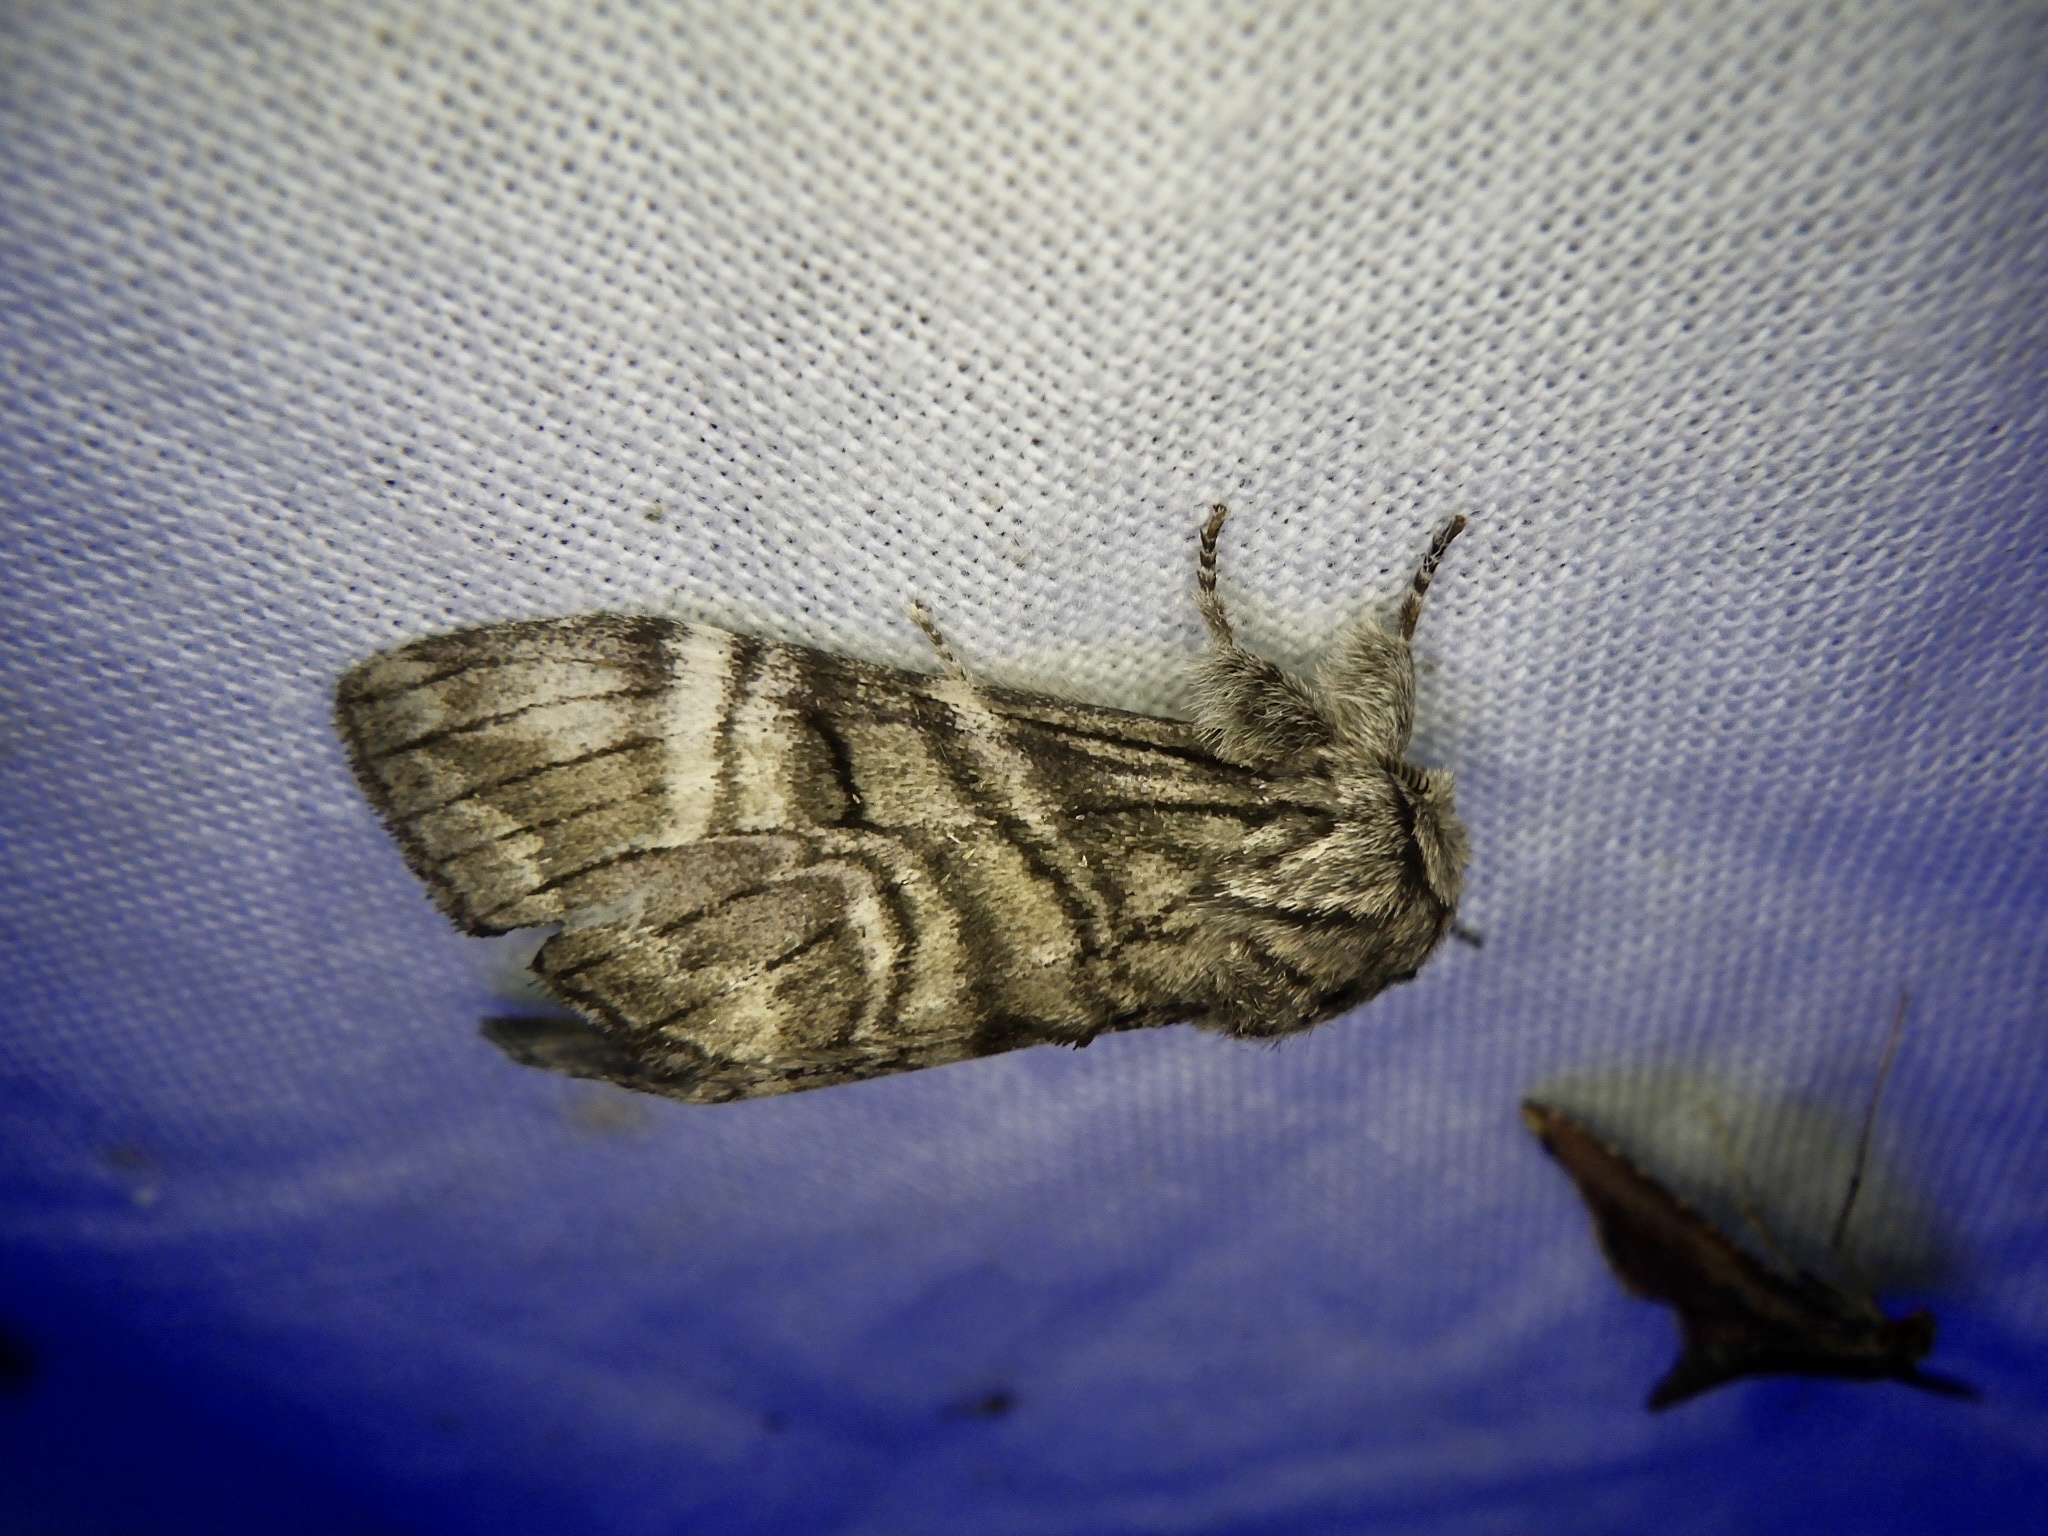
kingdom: Animalia
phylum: Arthropoda
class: Insecta
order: Lepidoptera
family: Notodontidae
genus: Epodonta
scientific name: Epodonta lineata
